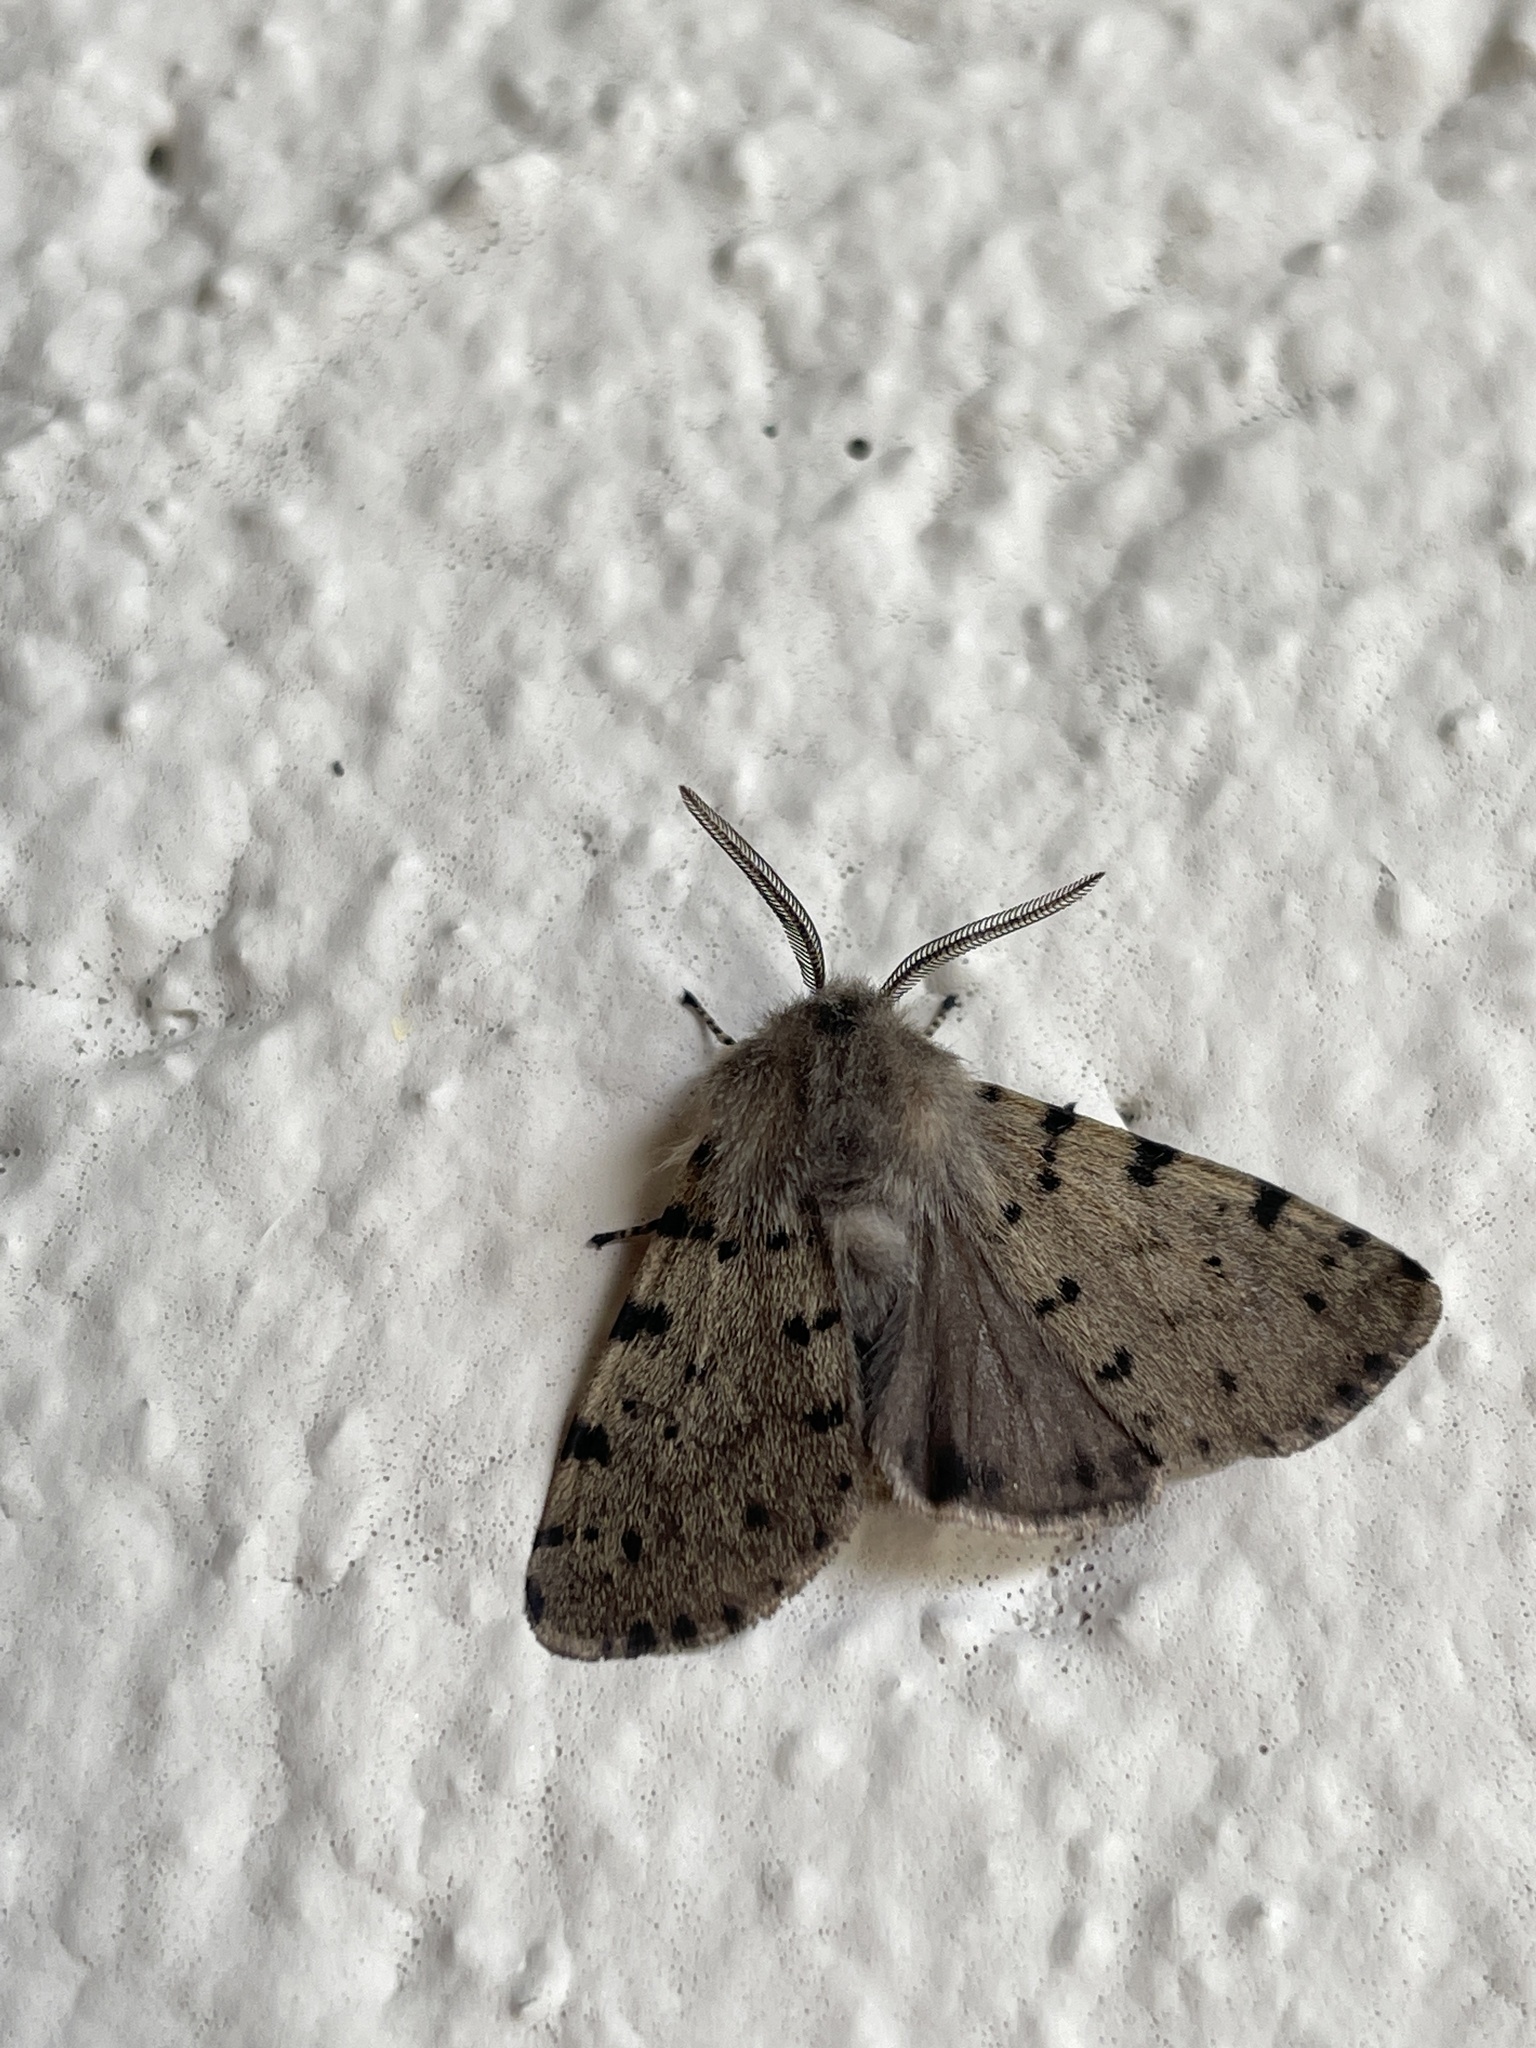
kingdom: Animalia
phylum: Arthropoda
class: Insecta
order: Lepidoptera
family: Erebidae
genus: Diaphora
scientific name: Diaphora luctuosa
